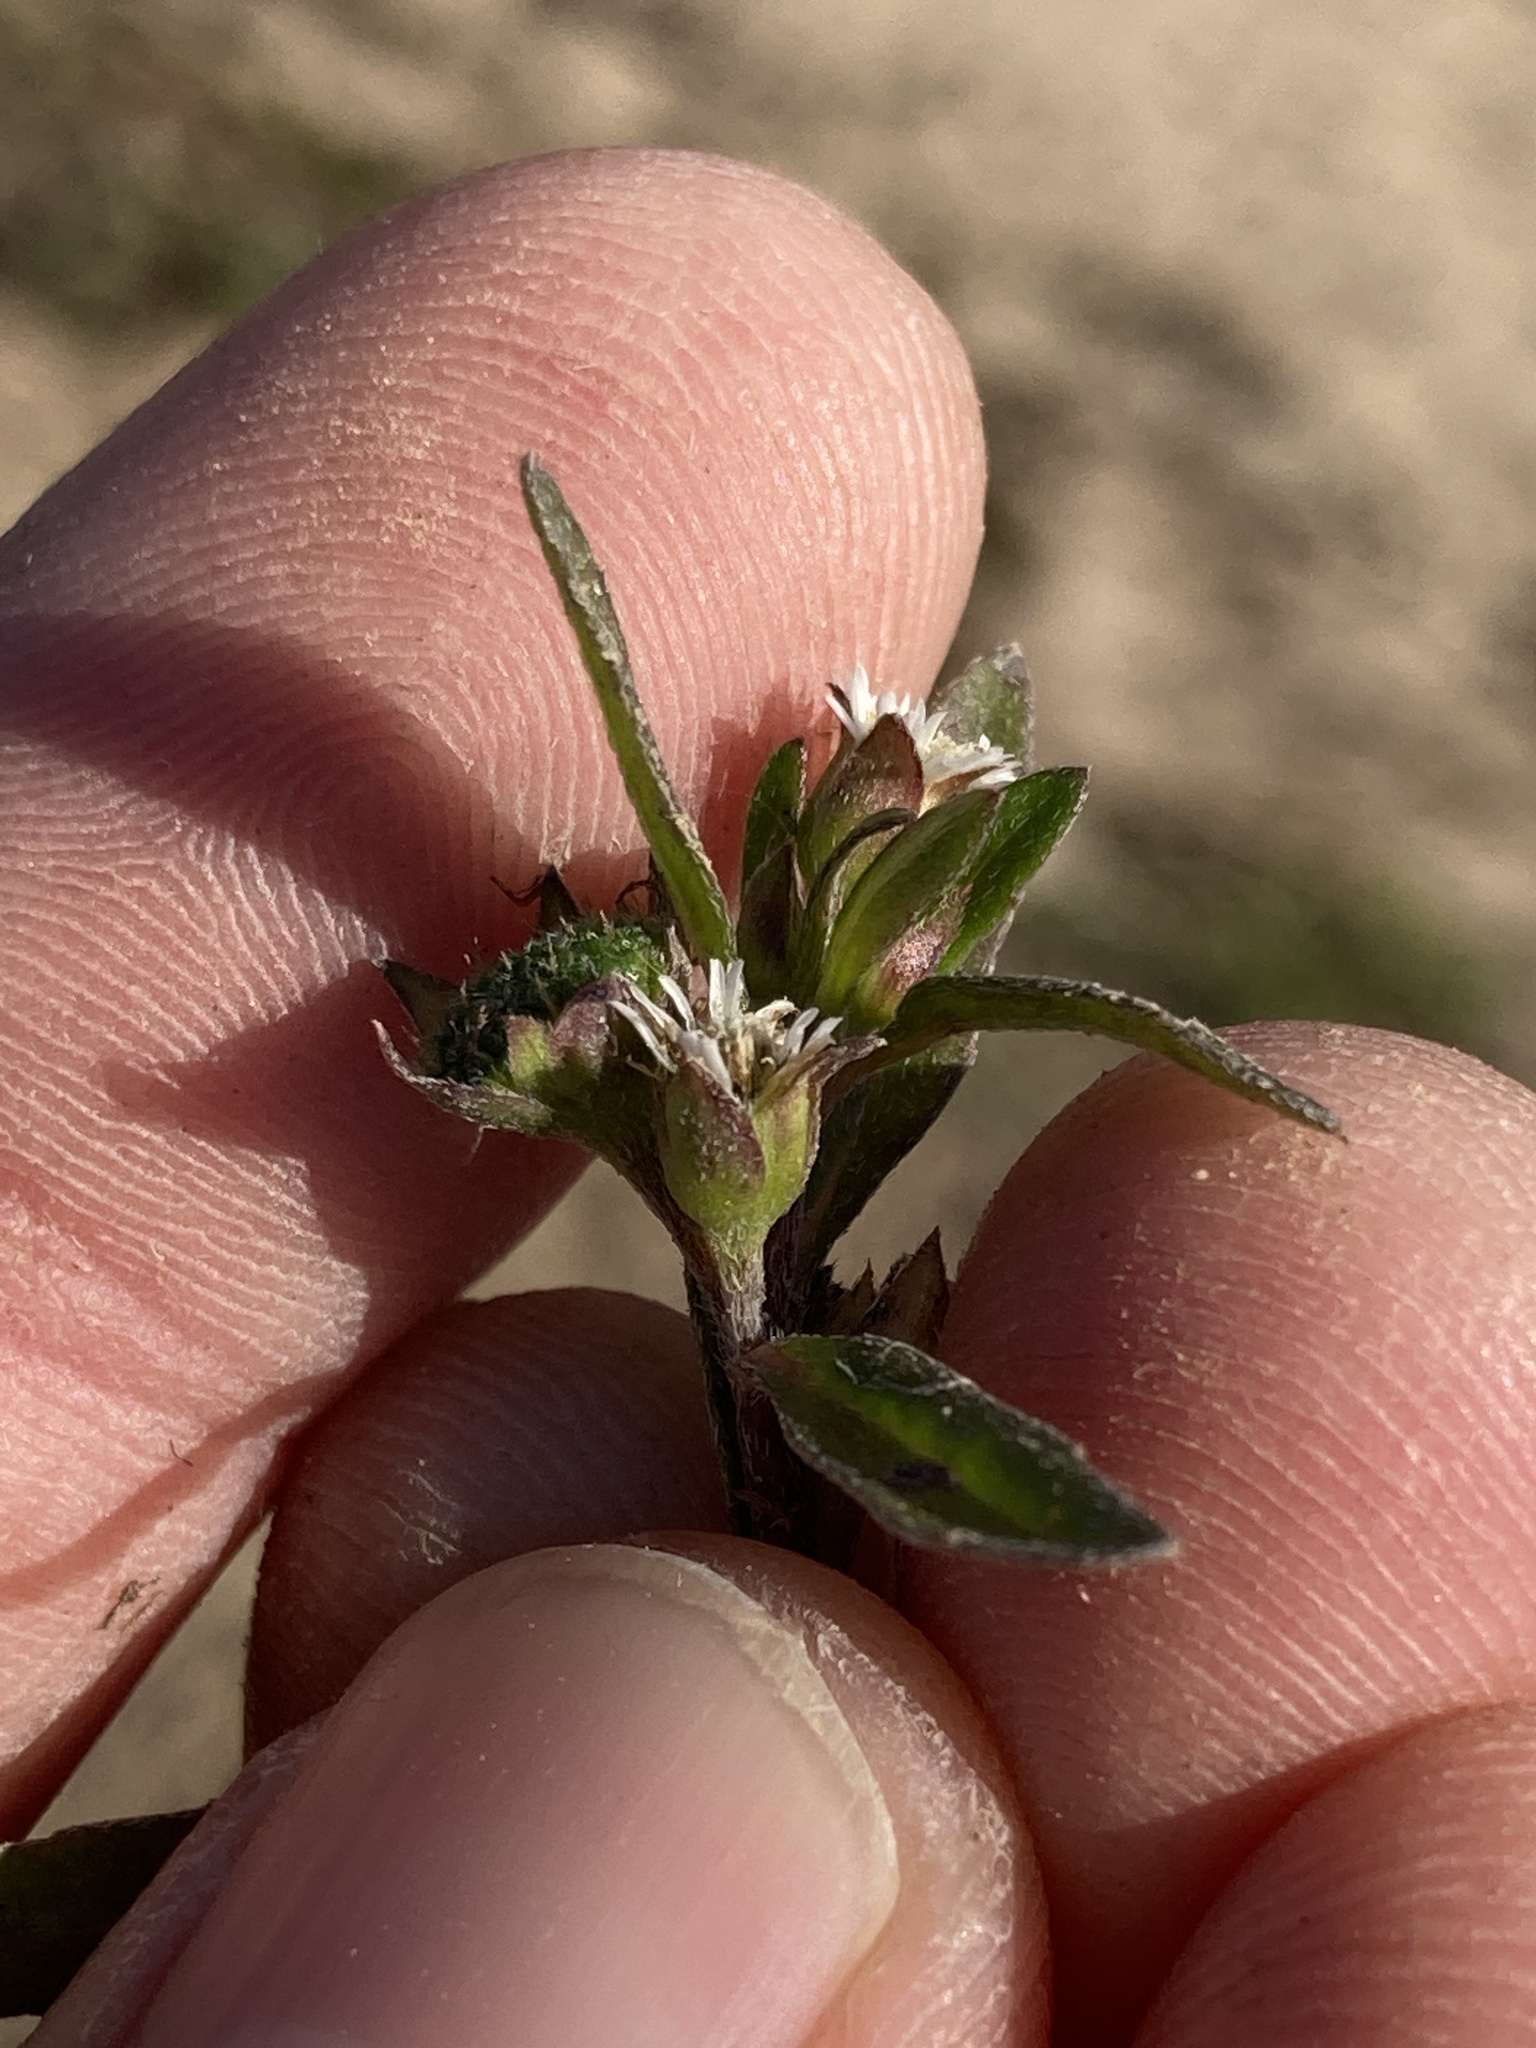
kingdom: Plantae
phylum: Tracheophyta
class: Magnoliopsida
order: Asterales
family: Asteraceae
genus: Eclipta
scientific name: Eclipta prostrata
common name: False daisy
